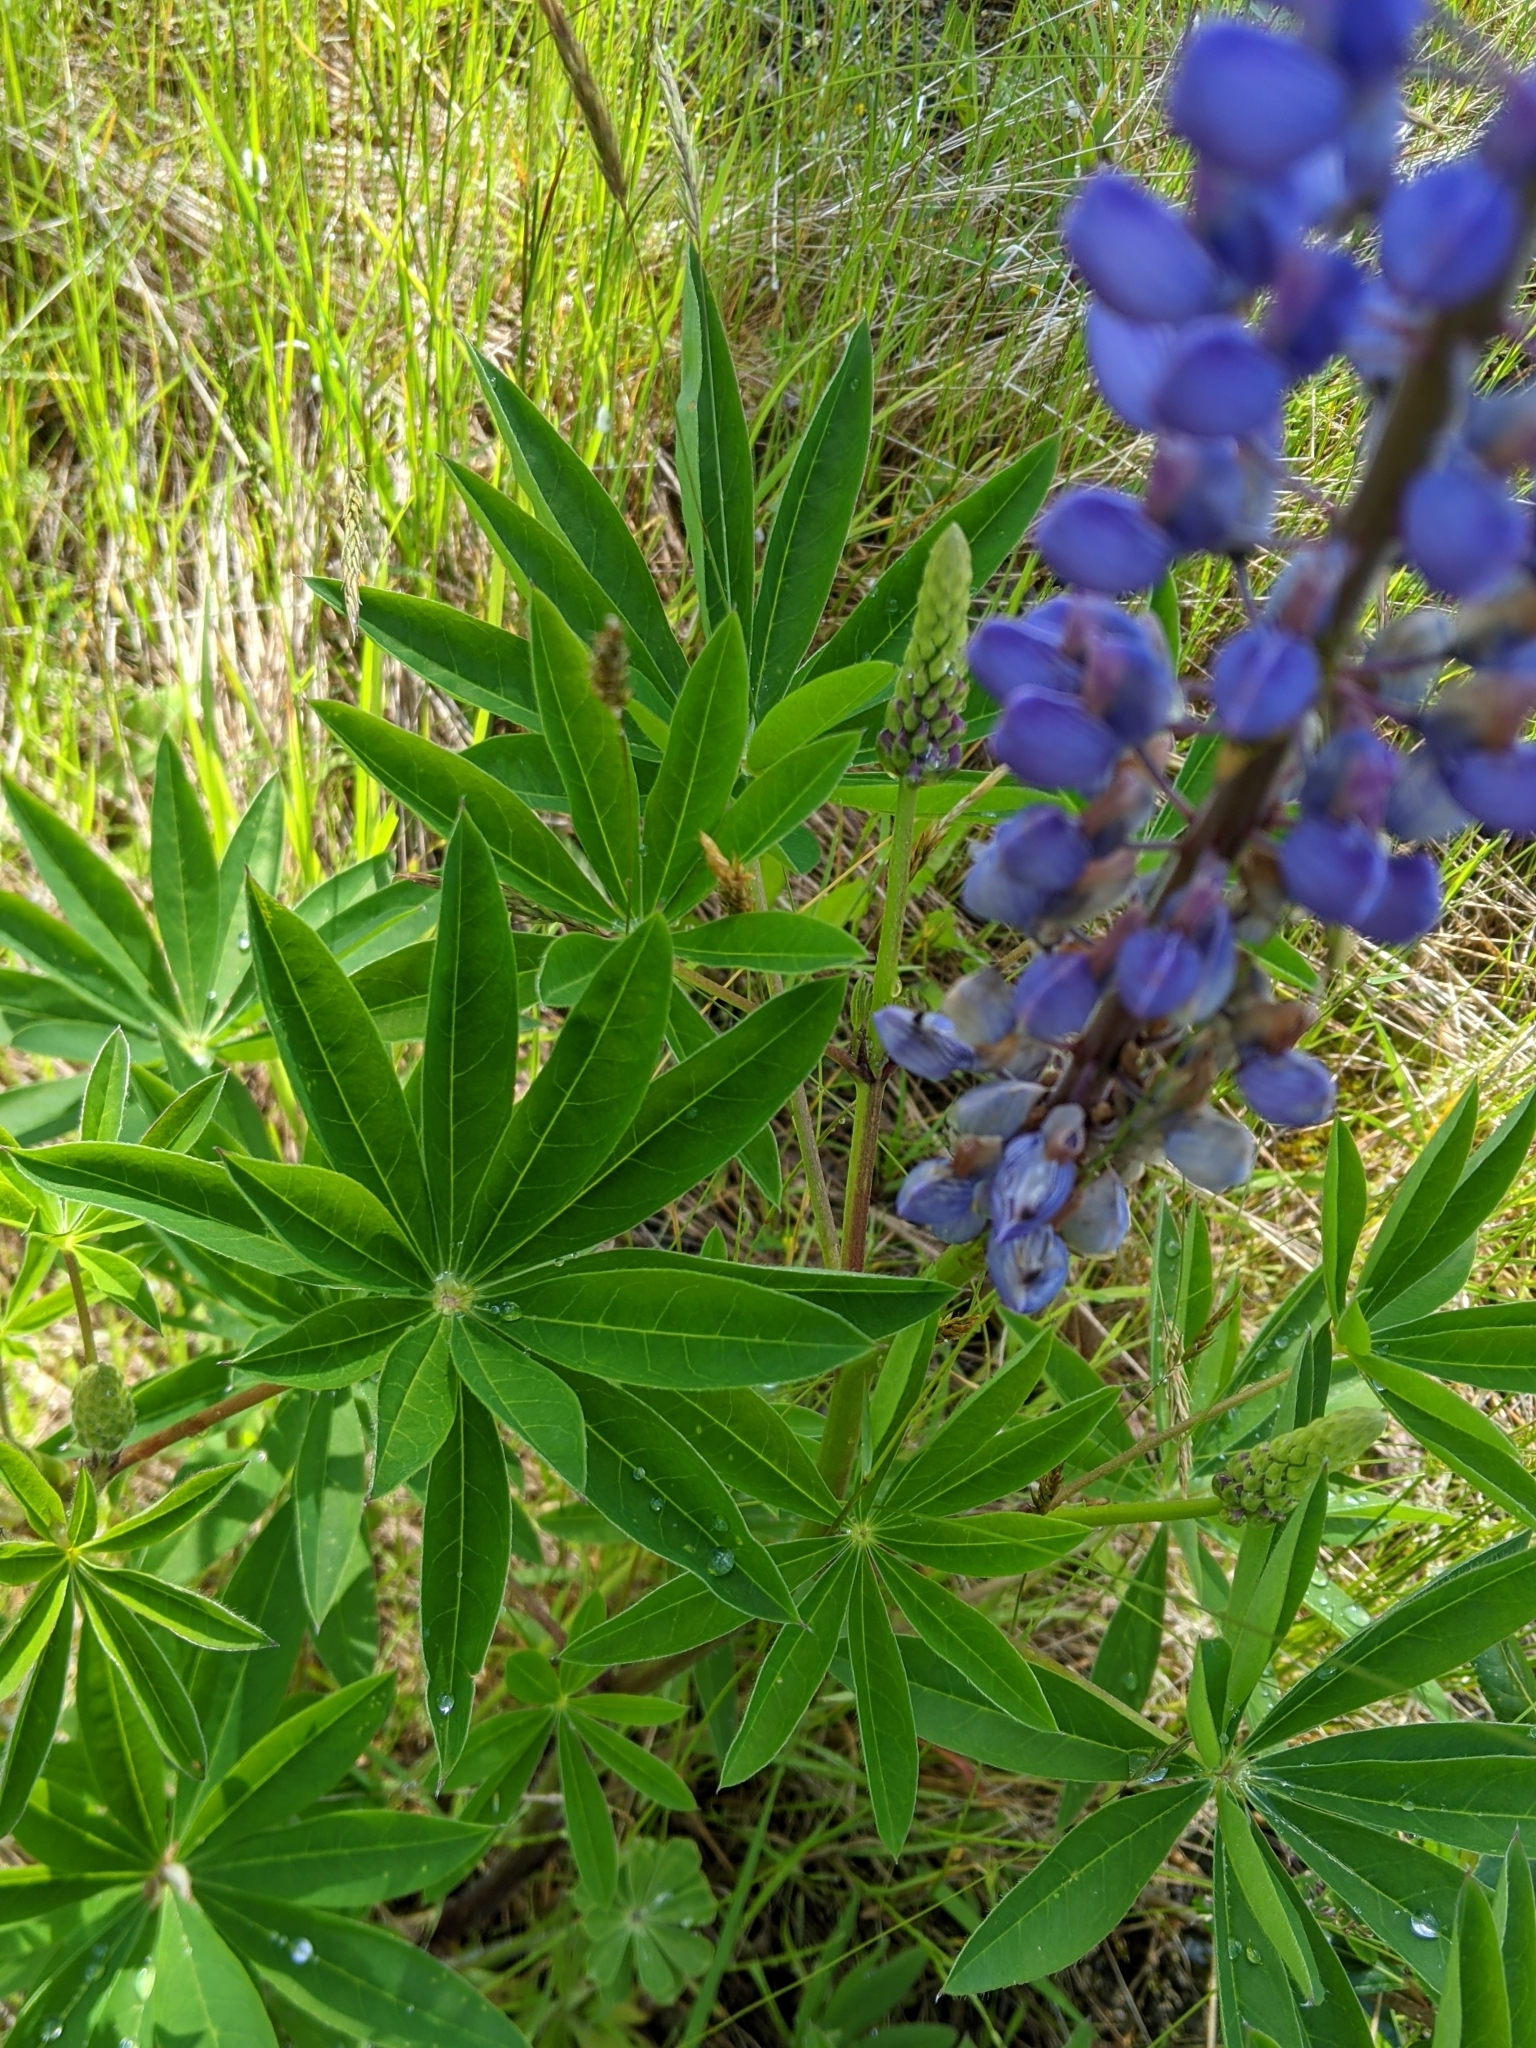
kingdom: Plantae
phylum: Tracheophyta
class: Magnoliopsida
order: Fabales
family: Fabaceae
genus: Lupinus
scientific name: Lupinus polyphyllus
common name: Garden lupin
